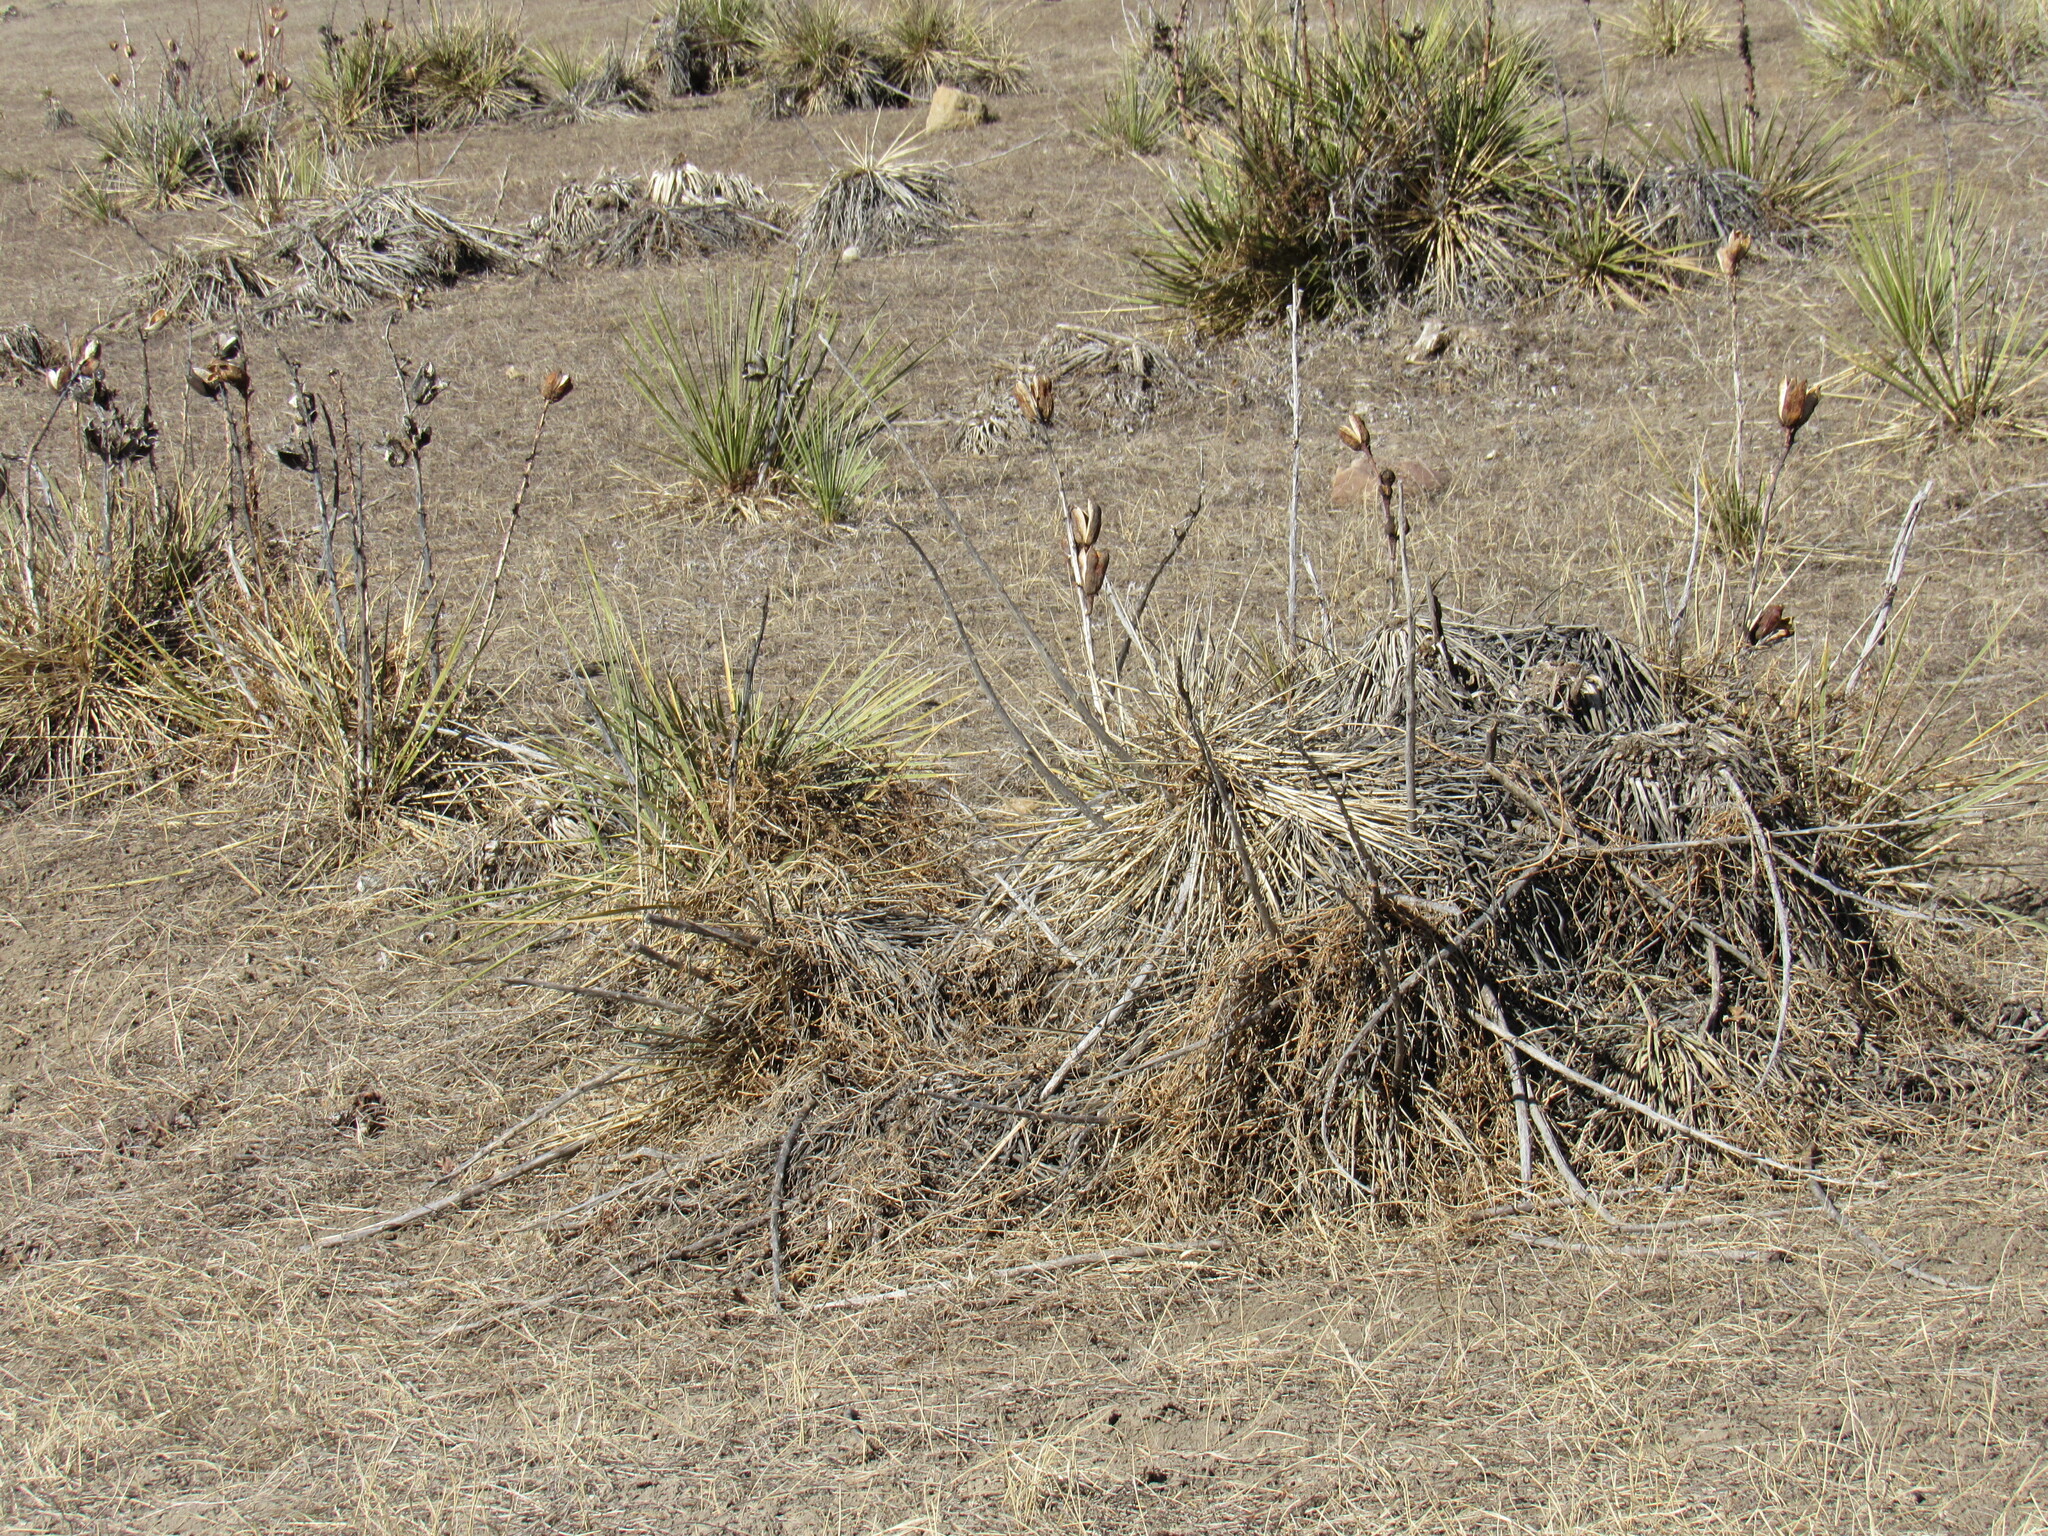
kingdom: Plantae
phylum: Tracheophyta
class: Liliopsida
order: Asparagales
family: Asparagaceae
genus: Yucca
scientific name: Yucca glauca
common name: Great plains yucca
